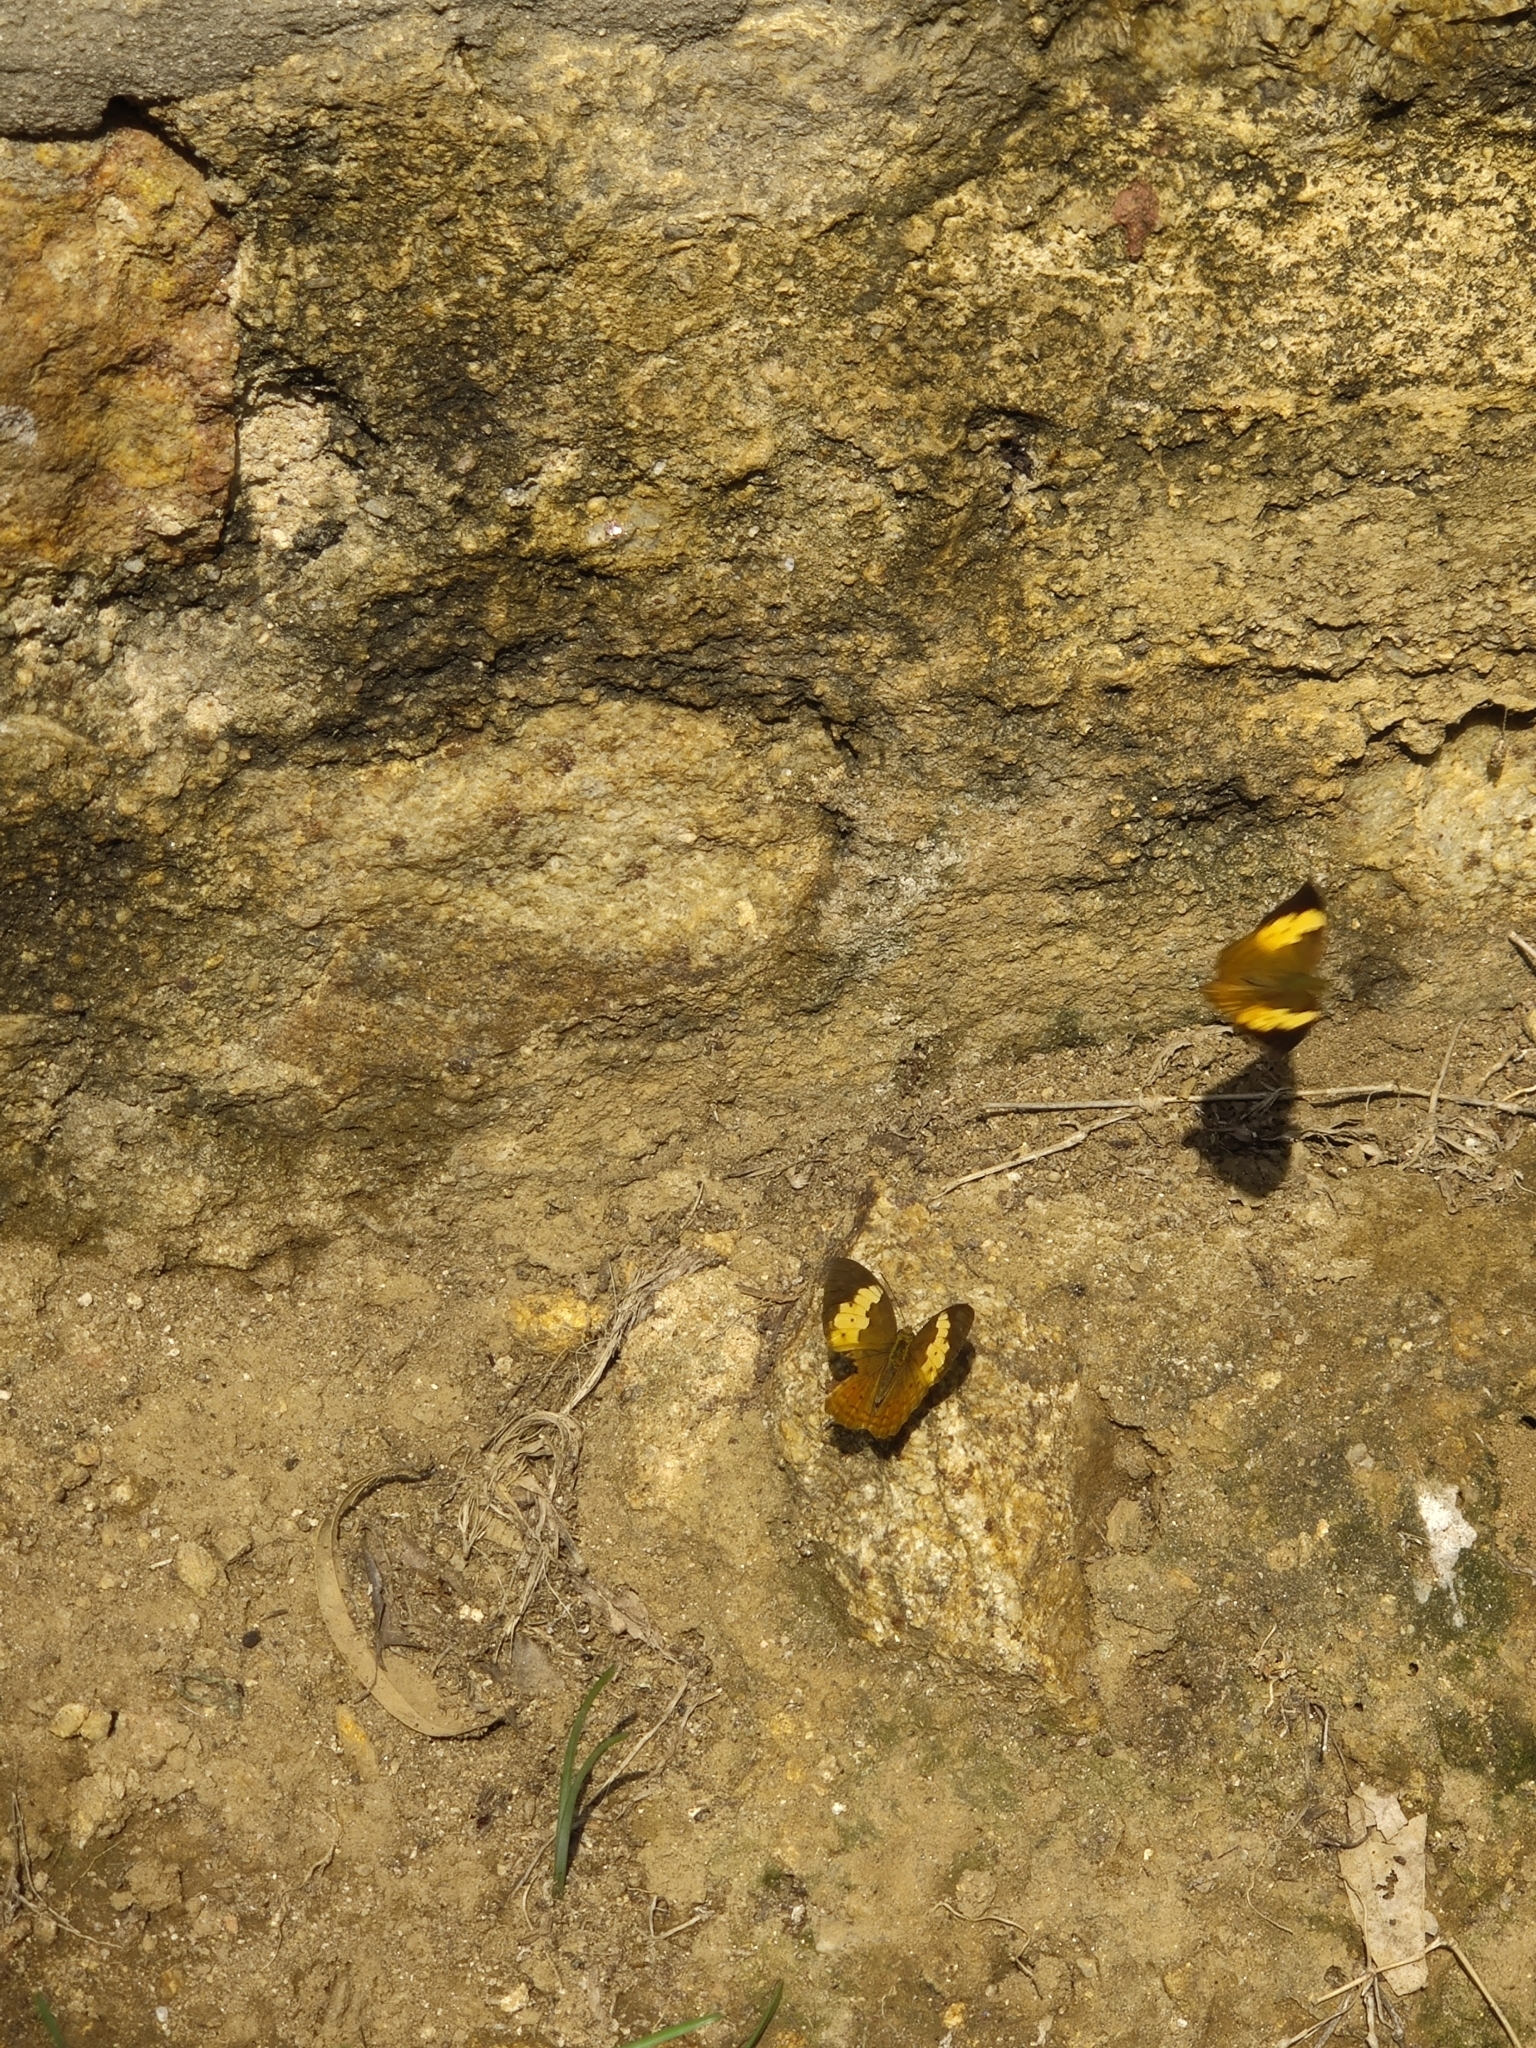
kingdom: Animalia
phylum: Arthropoda
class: Insecta
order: Lepidoptera
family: Nymphalidae
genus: Cupha
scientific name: Cupha erymanthis
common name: Rustic
